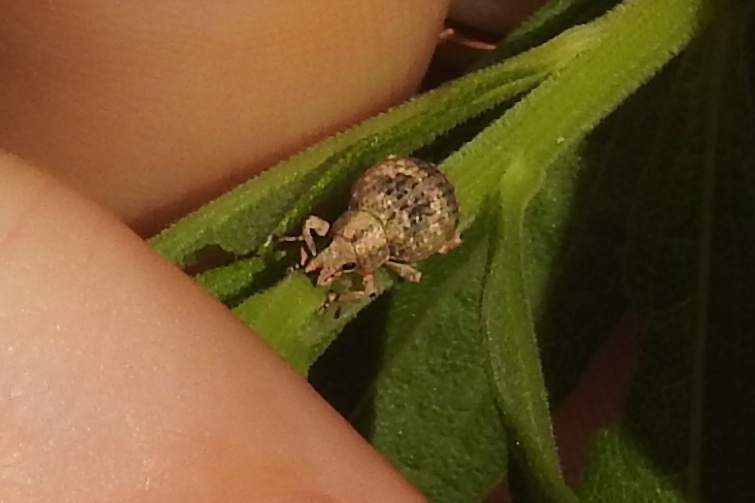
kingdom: Animalia
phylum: Arthropoda
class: Insecta
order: Coleoptera
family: Curculionidae
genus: Pseudocneorhinus
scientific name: Pseudocneorhinus bifasciatus
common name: Two-banded japanese weevil
